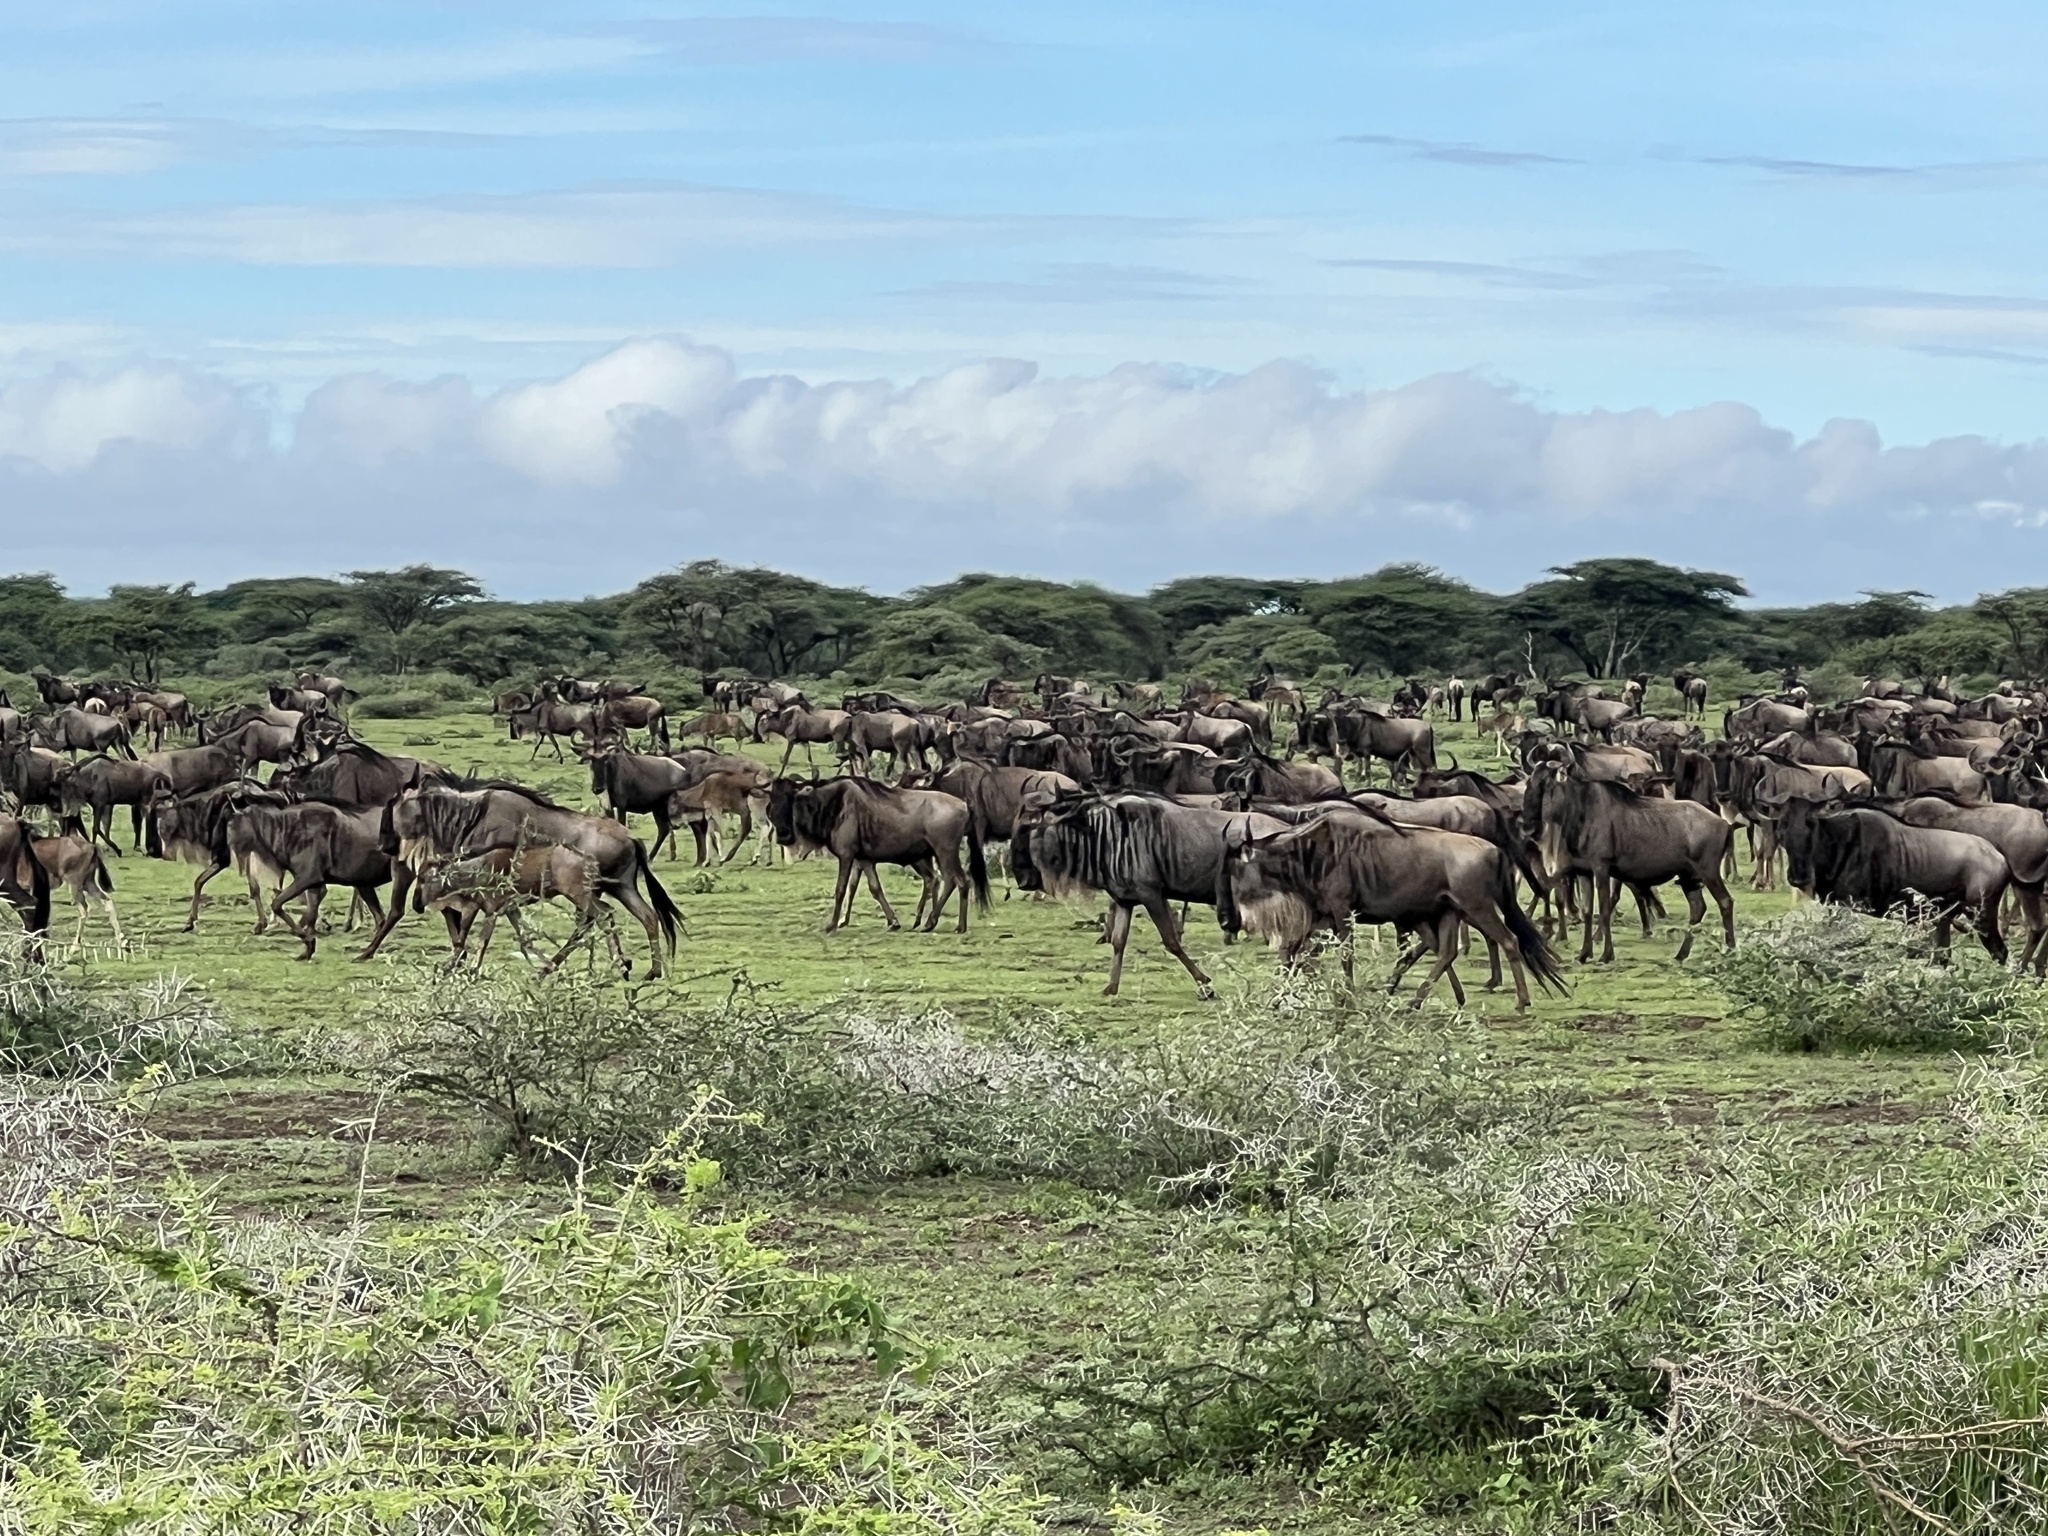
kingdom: Animalia
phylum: Chordata
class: Mammalia
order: Artiodactyla
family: Bovidae
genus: Connochaetes
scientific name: Connochaetes taurinus
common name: Blue wildebeest
